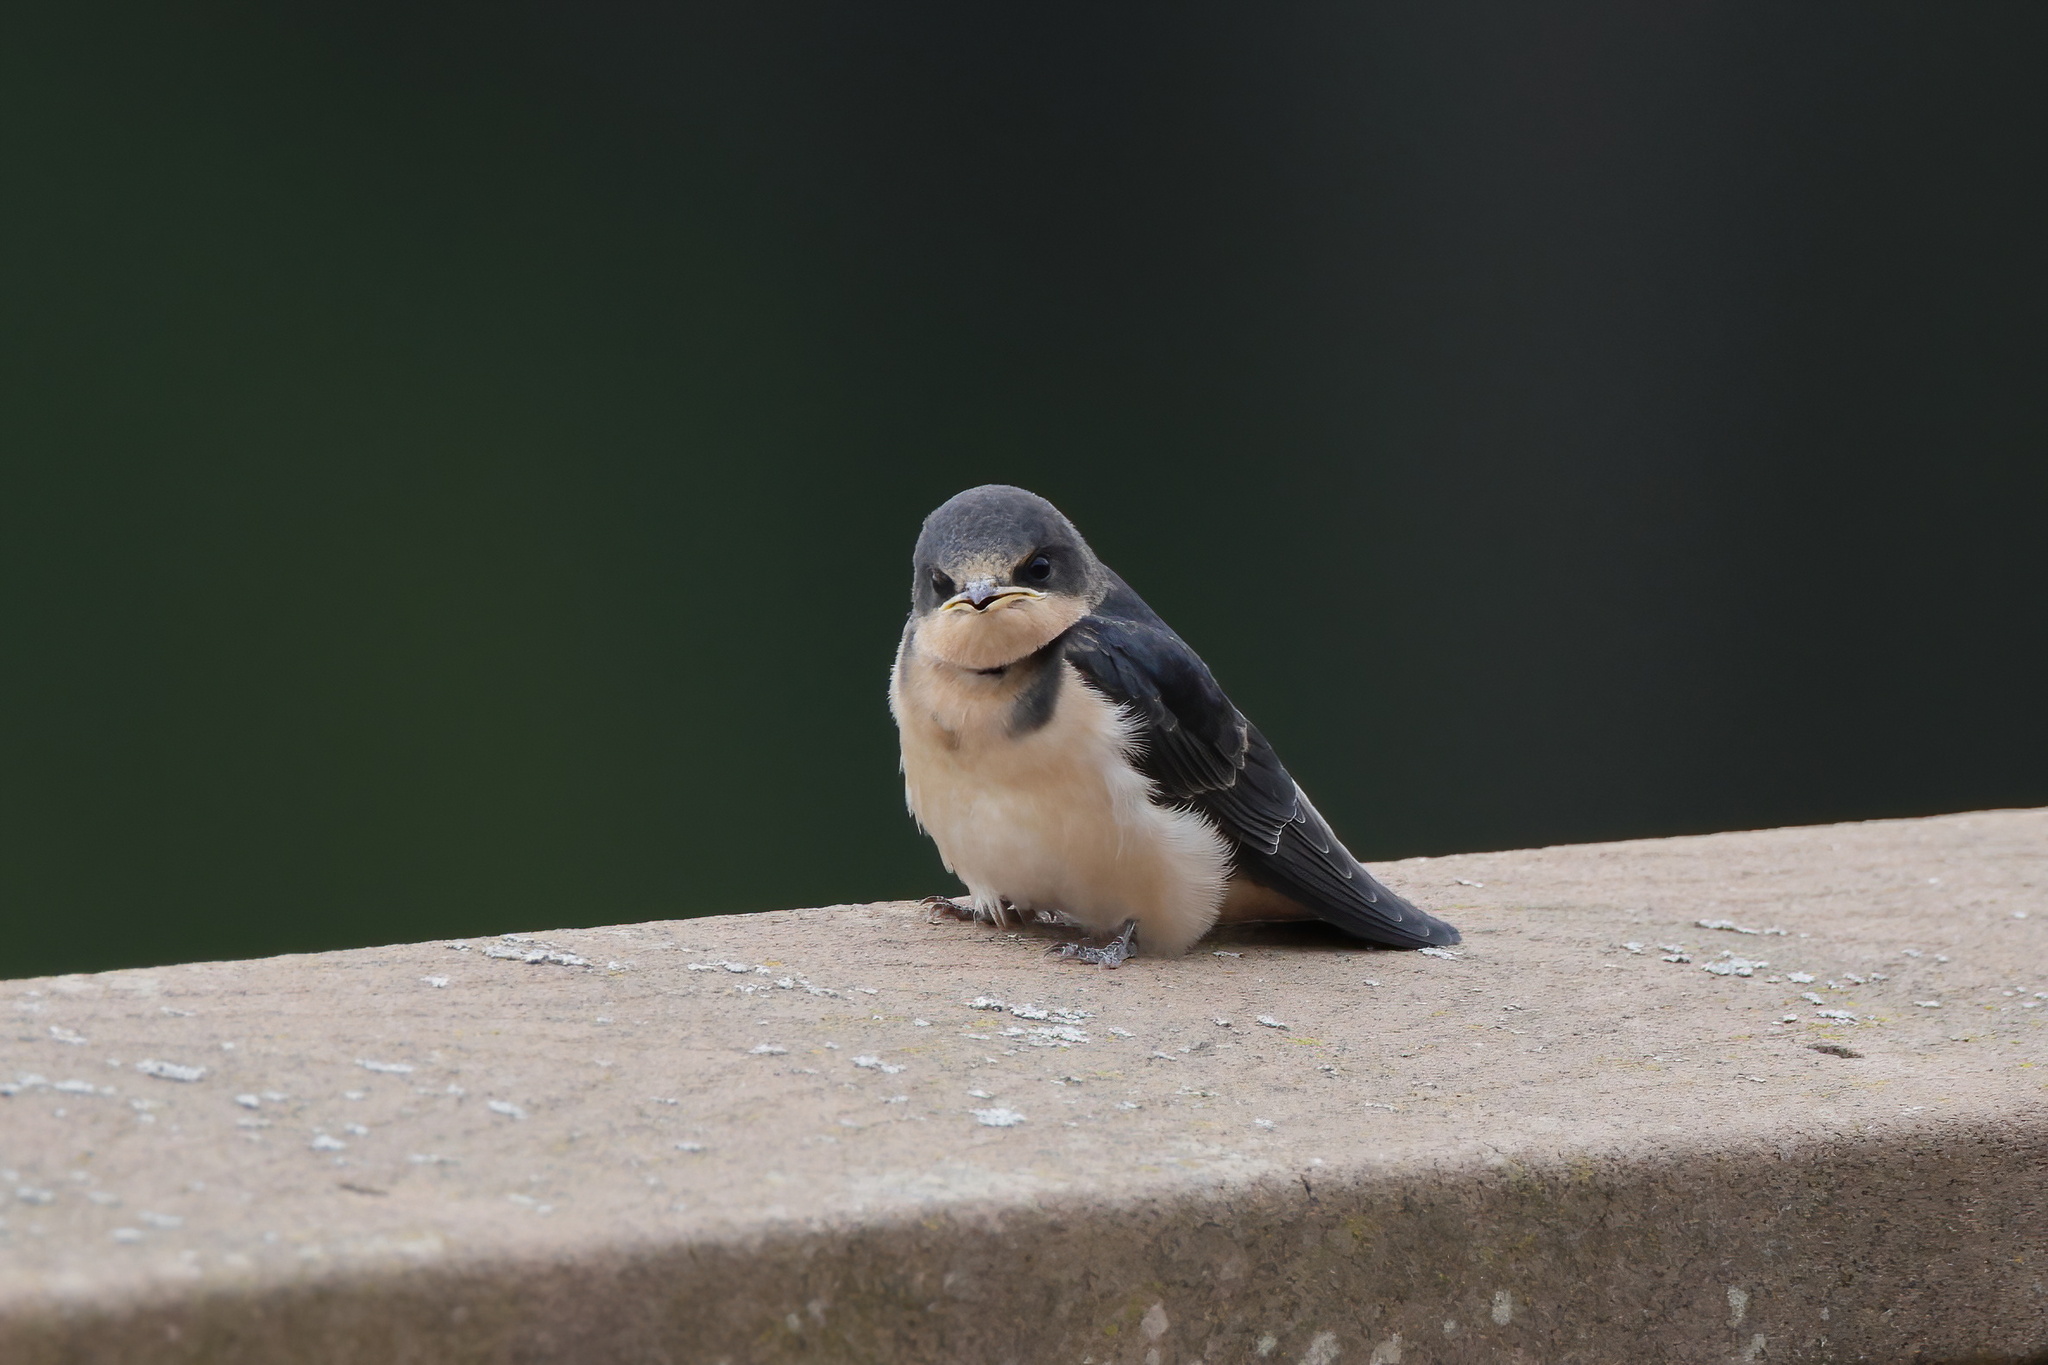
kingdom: Animalia
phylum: Chordata
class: Aves
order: Passeriformes
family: Hirundinidae
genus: Hirundo
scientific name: Hirundo rustica
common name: Barn swallow
